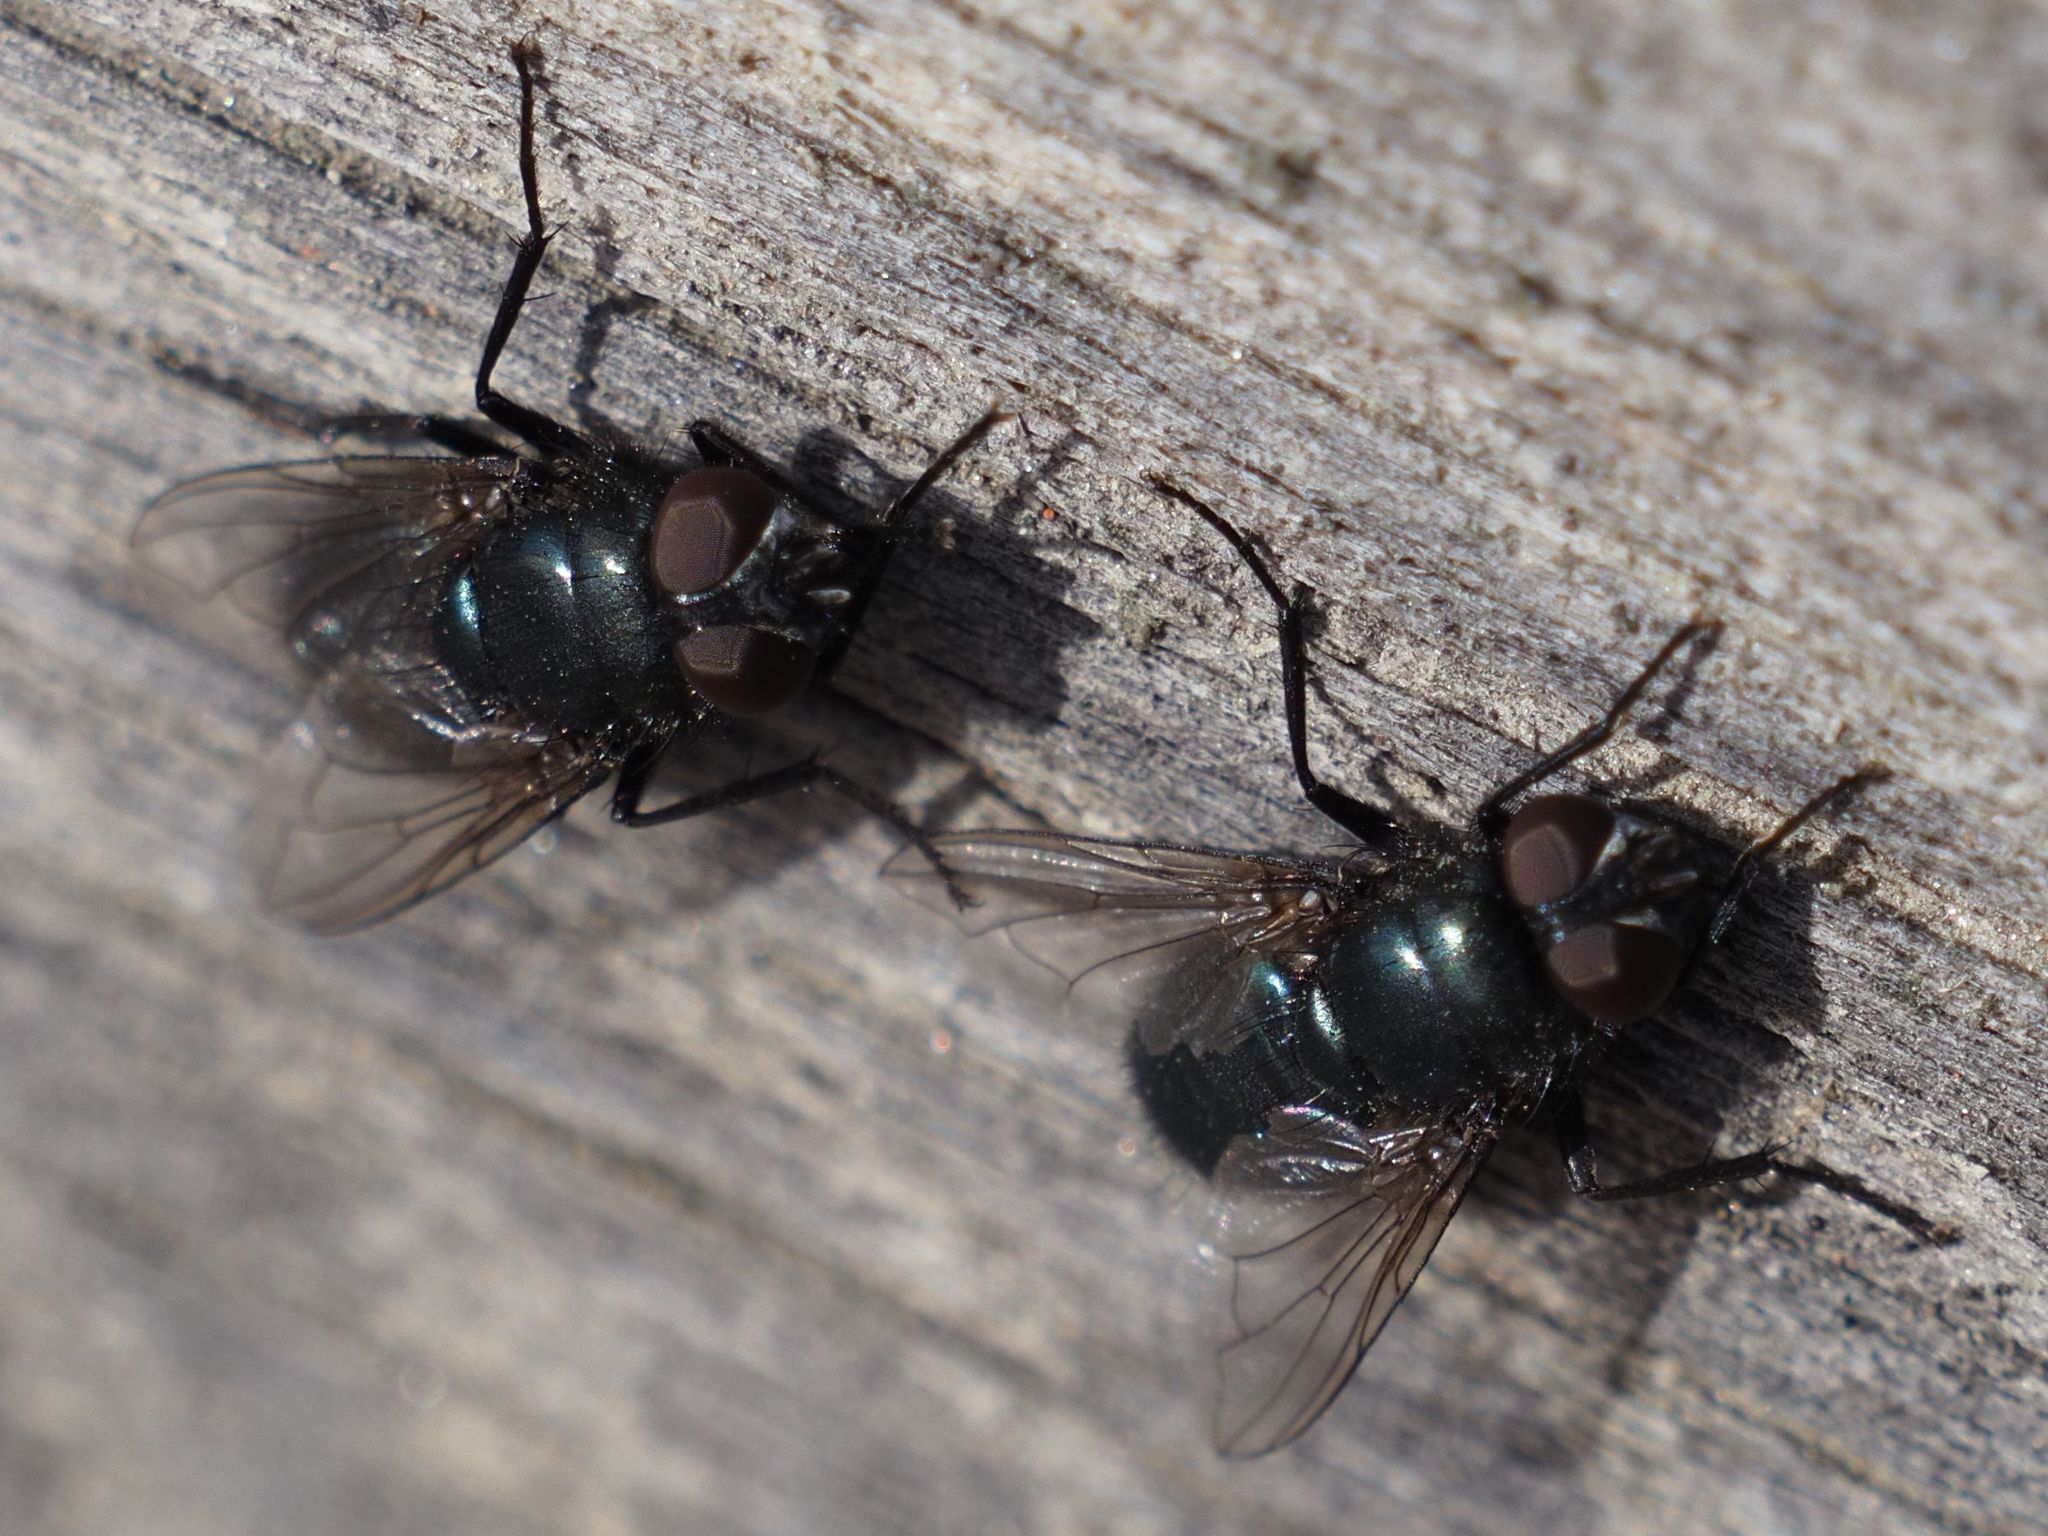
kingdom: Animalia
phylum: Arthropoda
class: Insecta
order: Diptera
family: Calliphoridae
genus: Protophormia
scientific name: Protophormia terraenovae
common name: Blackbottle
